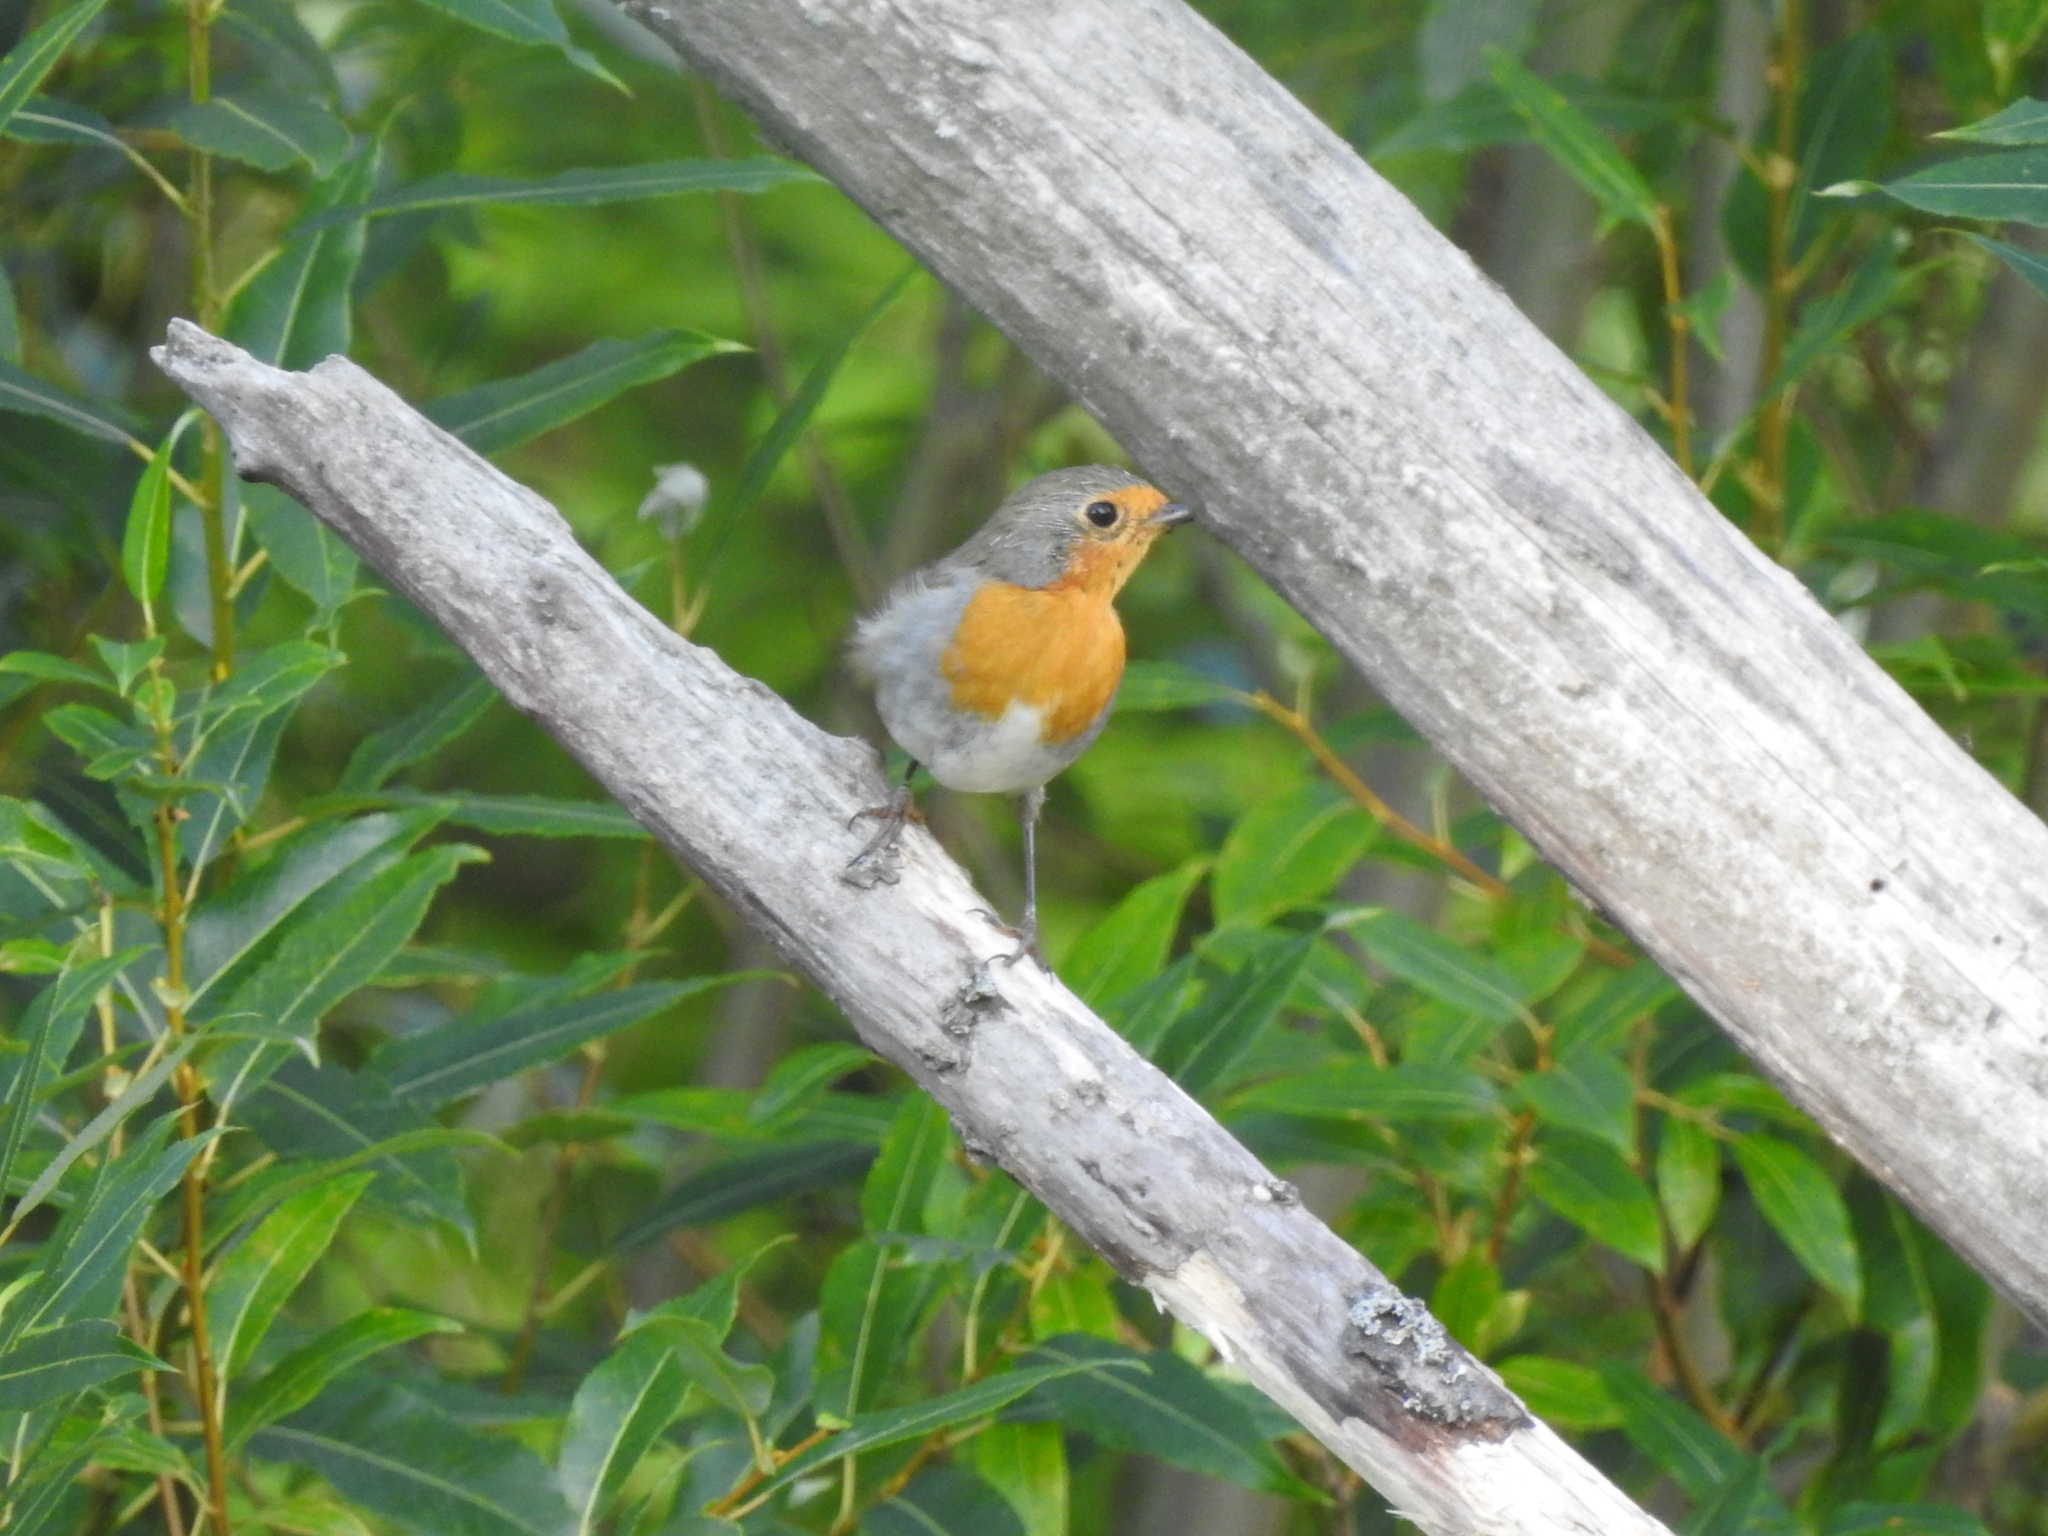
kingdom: Animalia
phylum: Chordata
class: Aves
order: Passeriformes
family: Muscicapidae
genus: Erithacus
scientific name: Erithacus rubecula
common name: European robin
